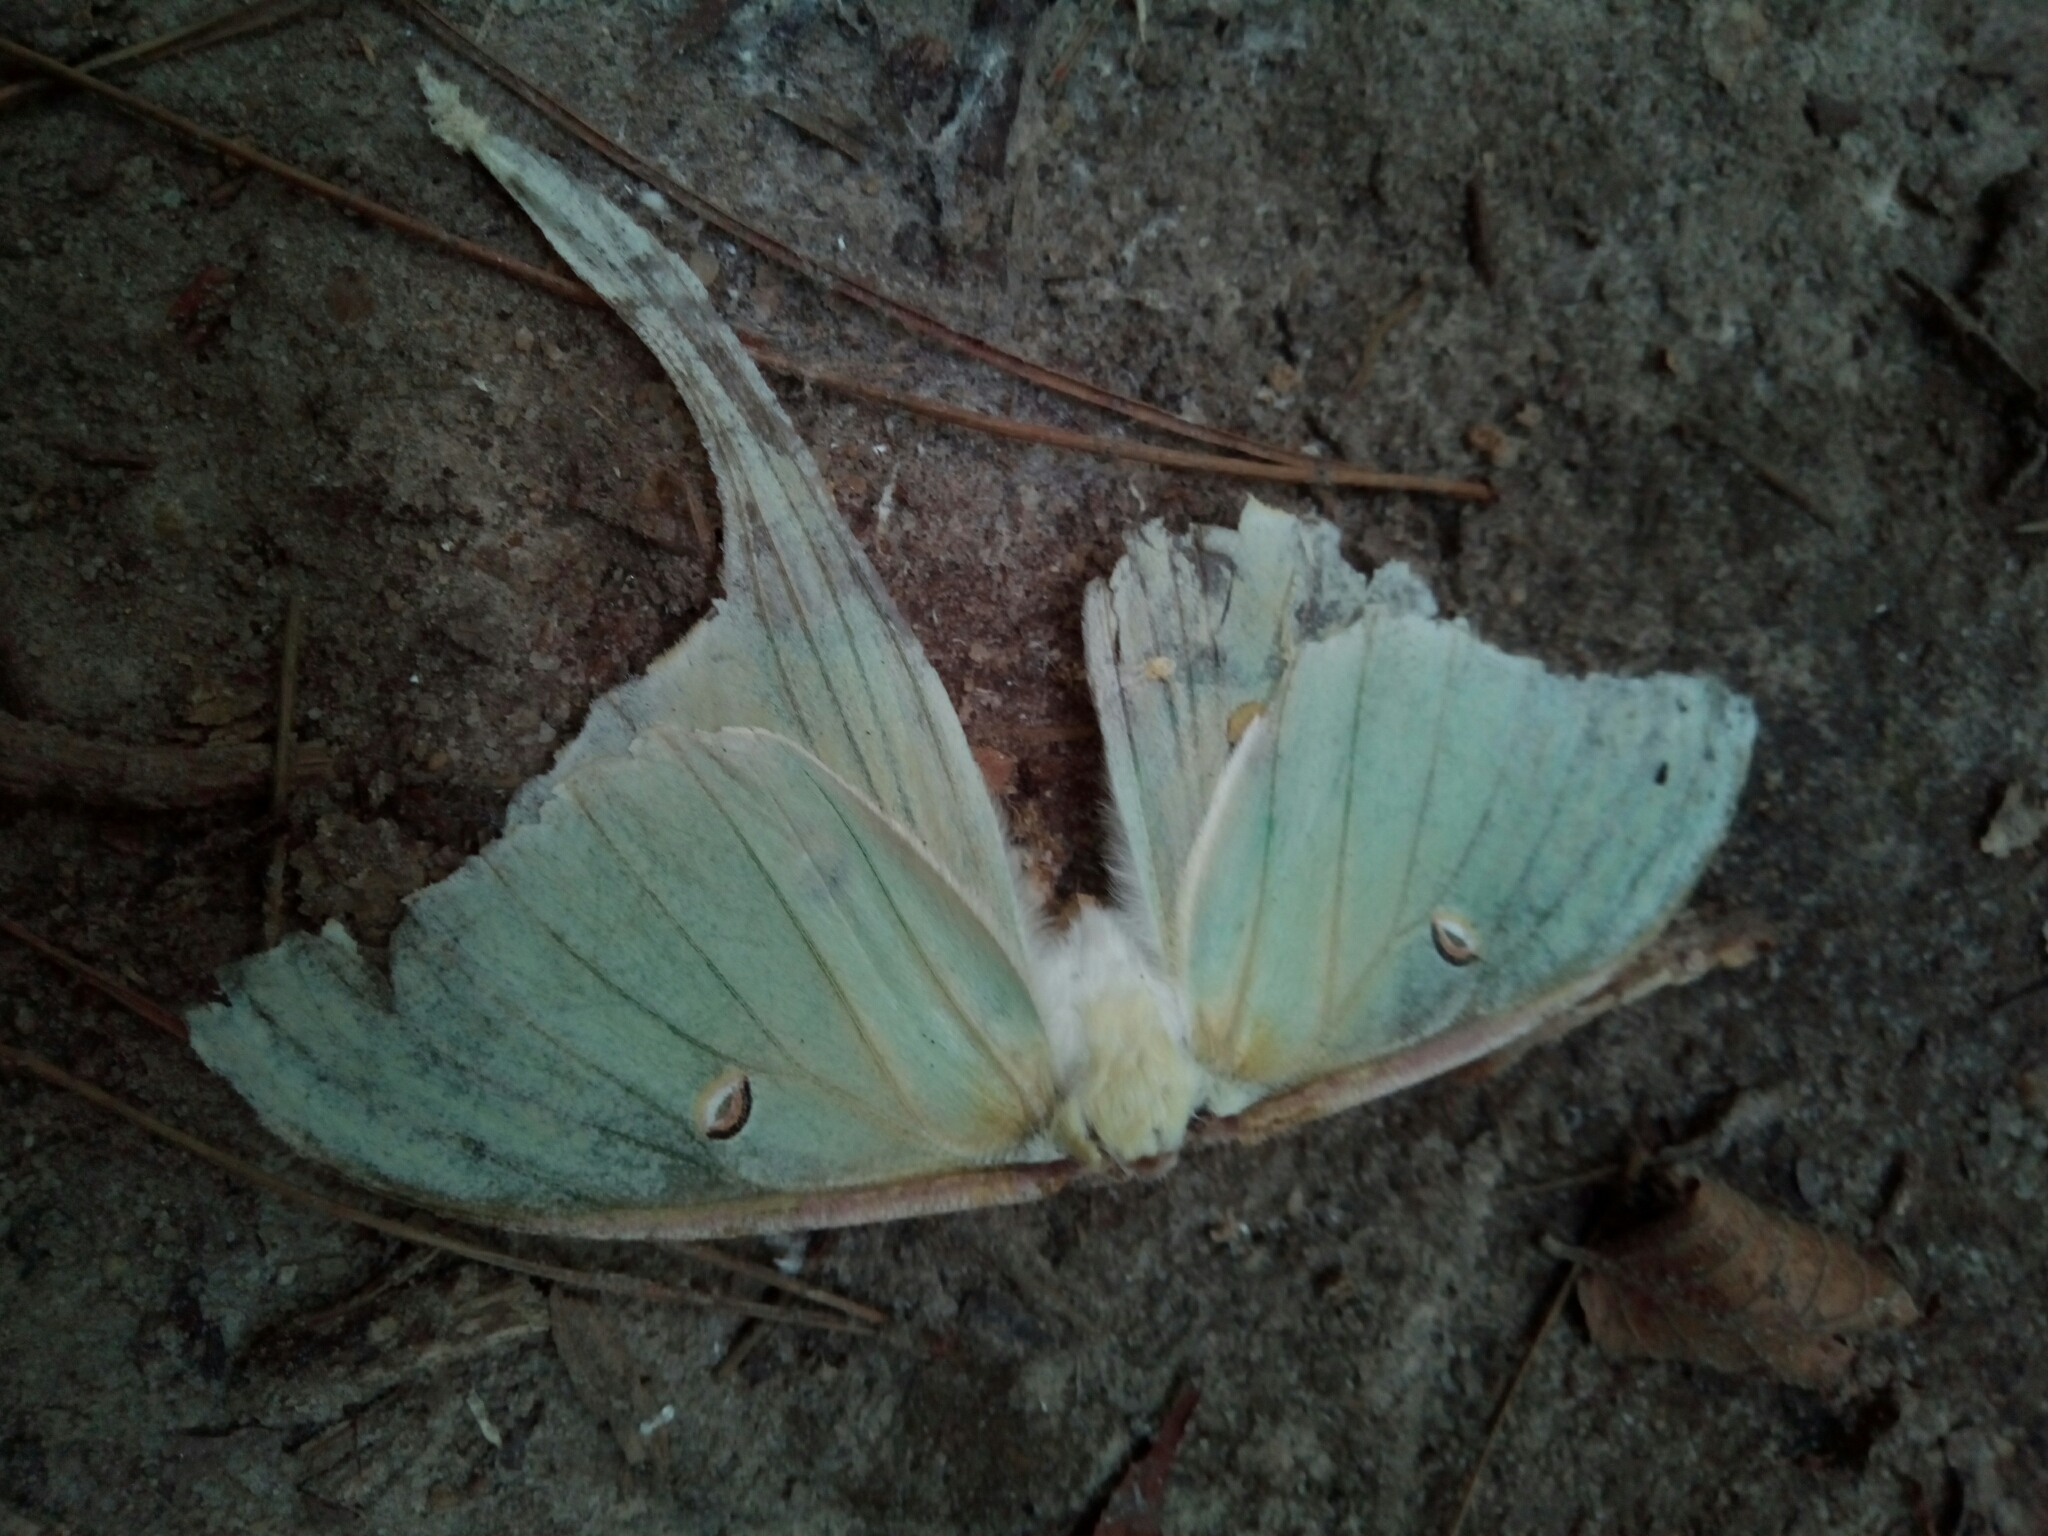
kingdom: Animalia
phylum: Arthropoda
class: Insecta
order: Lepidoptera
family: Saturniidae
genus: Actias
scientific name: Actias luna
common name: Luna moth
